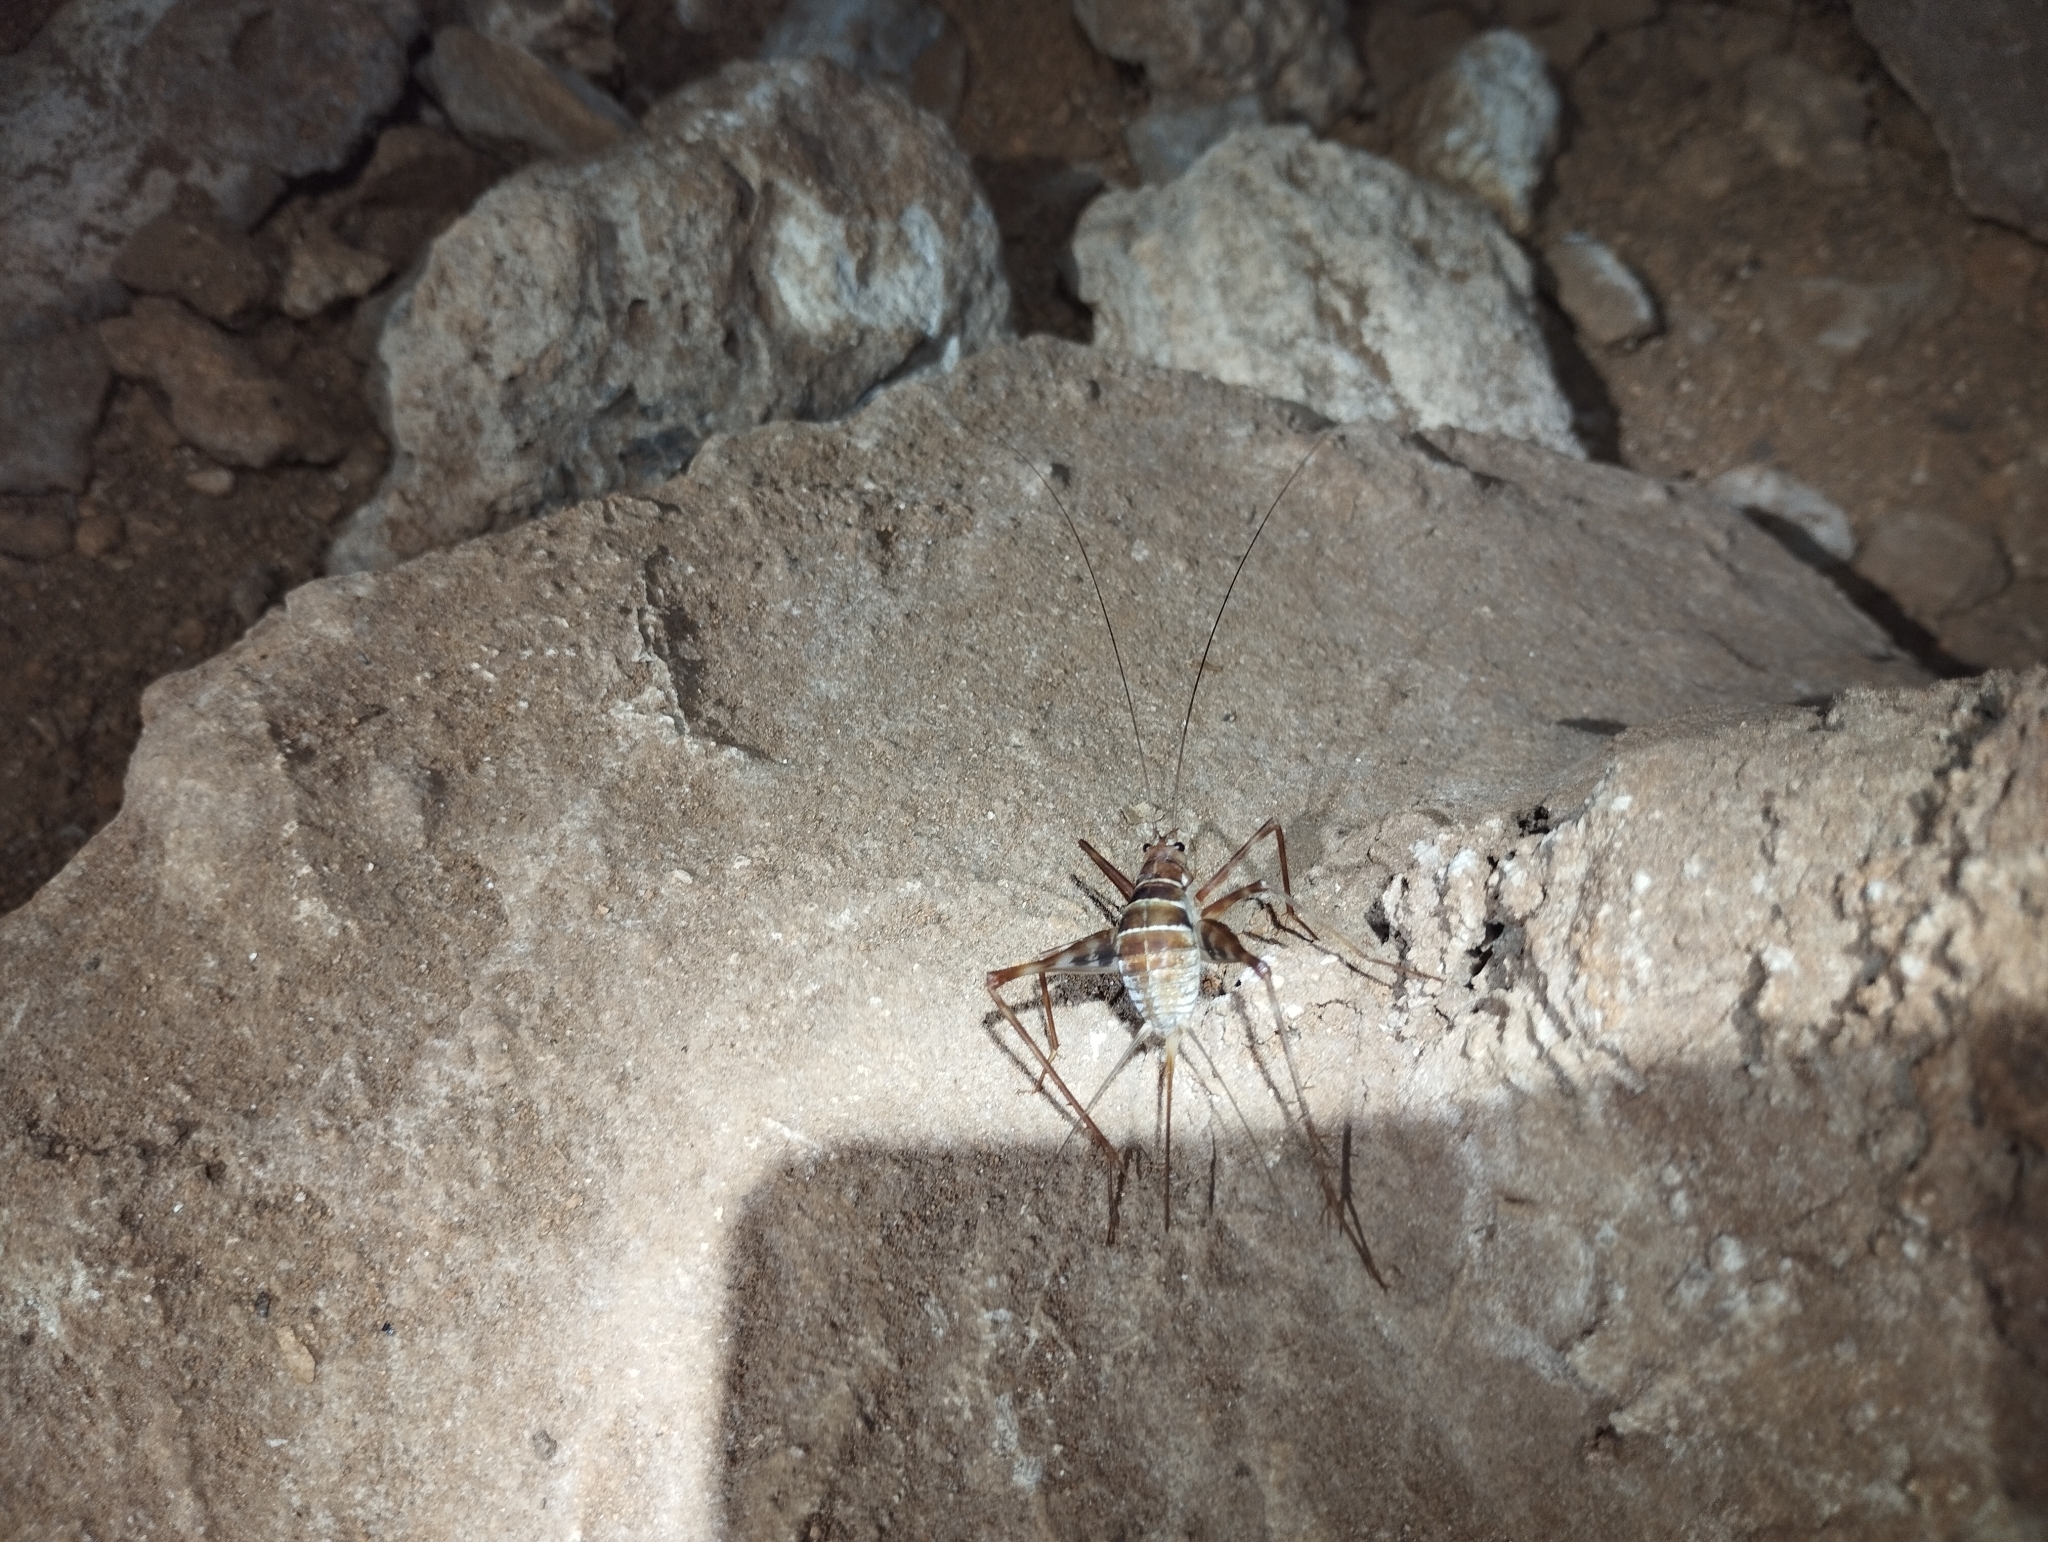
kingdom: Animalia
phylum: Arthropoda
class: Insecta
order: Orthoptera
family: Phalangopsidae
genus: Mayagryllus
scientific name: Mayagryllus yucatanus
